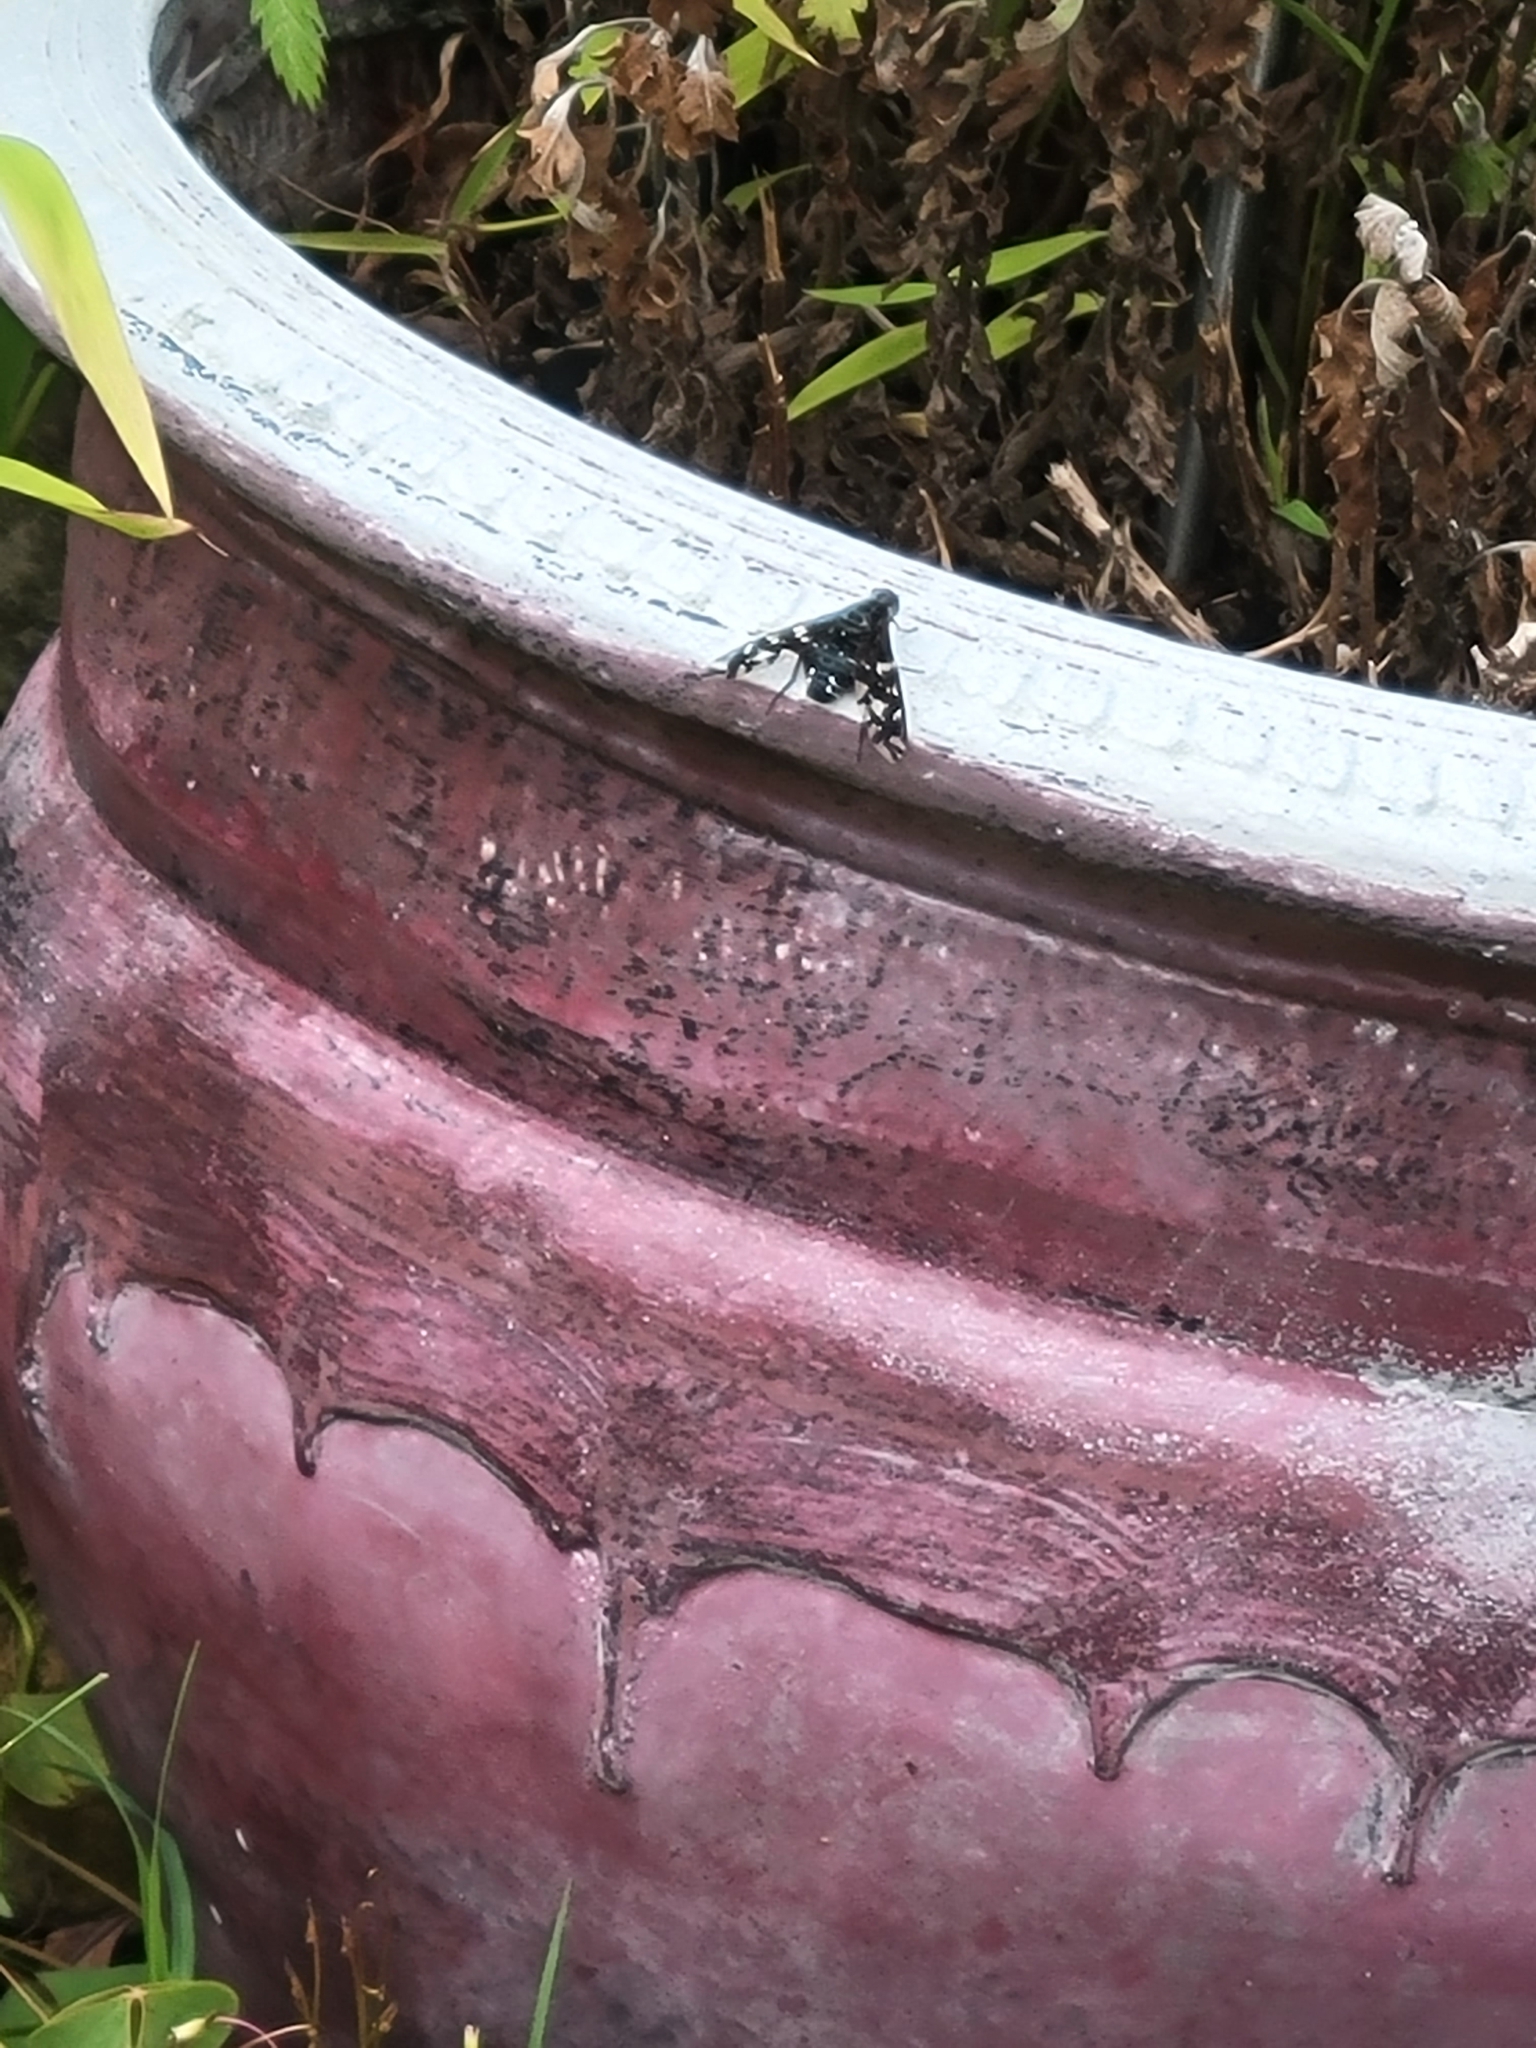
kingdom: Animalia
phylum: Arthropoda
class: Insecta
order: Diptera
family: Bombyliidae
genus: Xenox
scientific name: Xenox tigrinus
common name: Tiger bee fly
